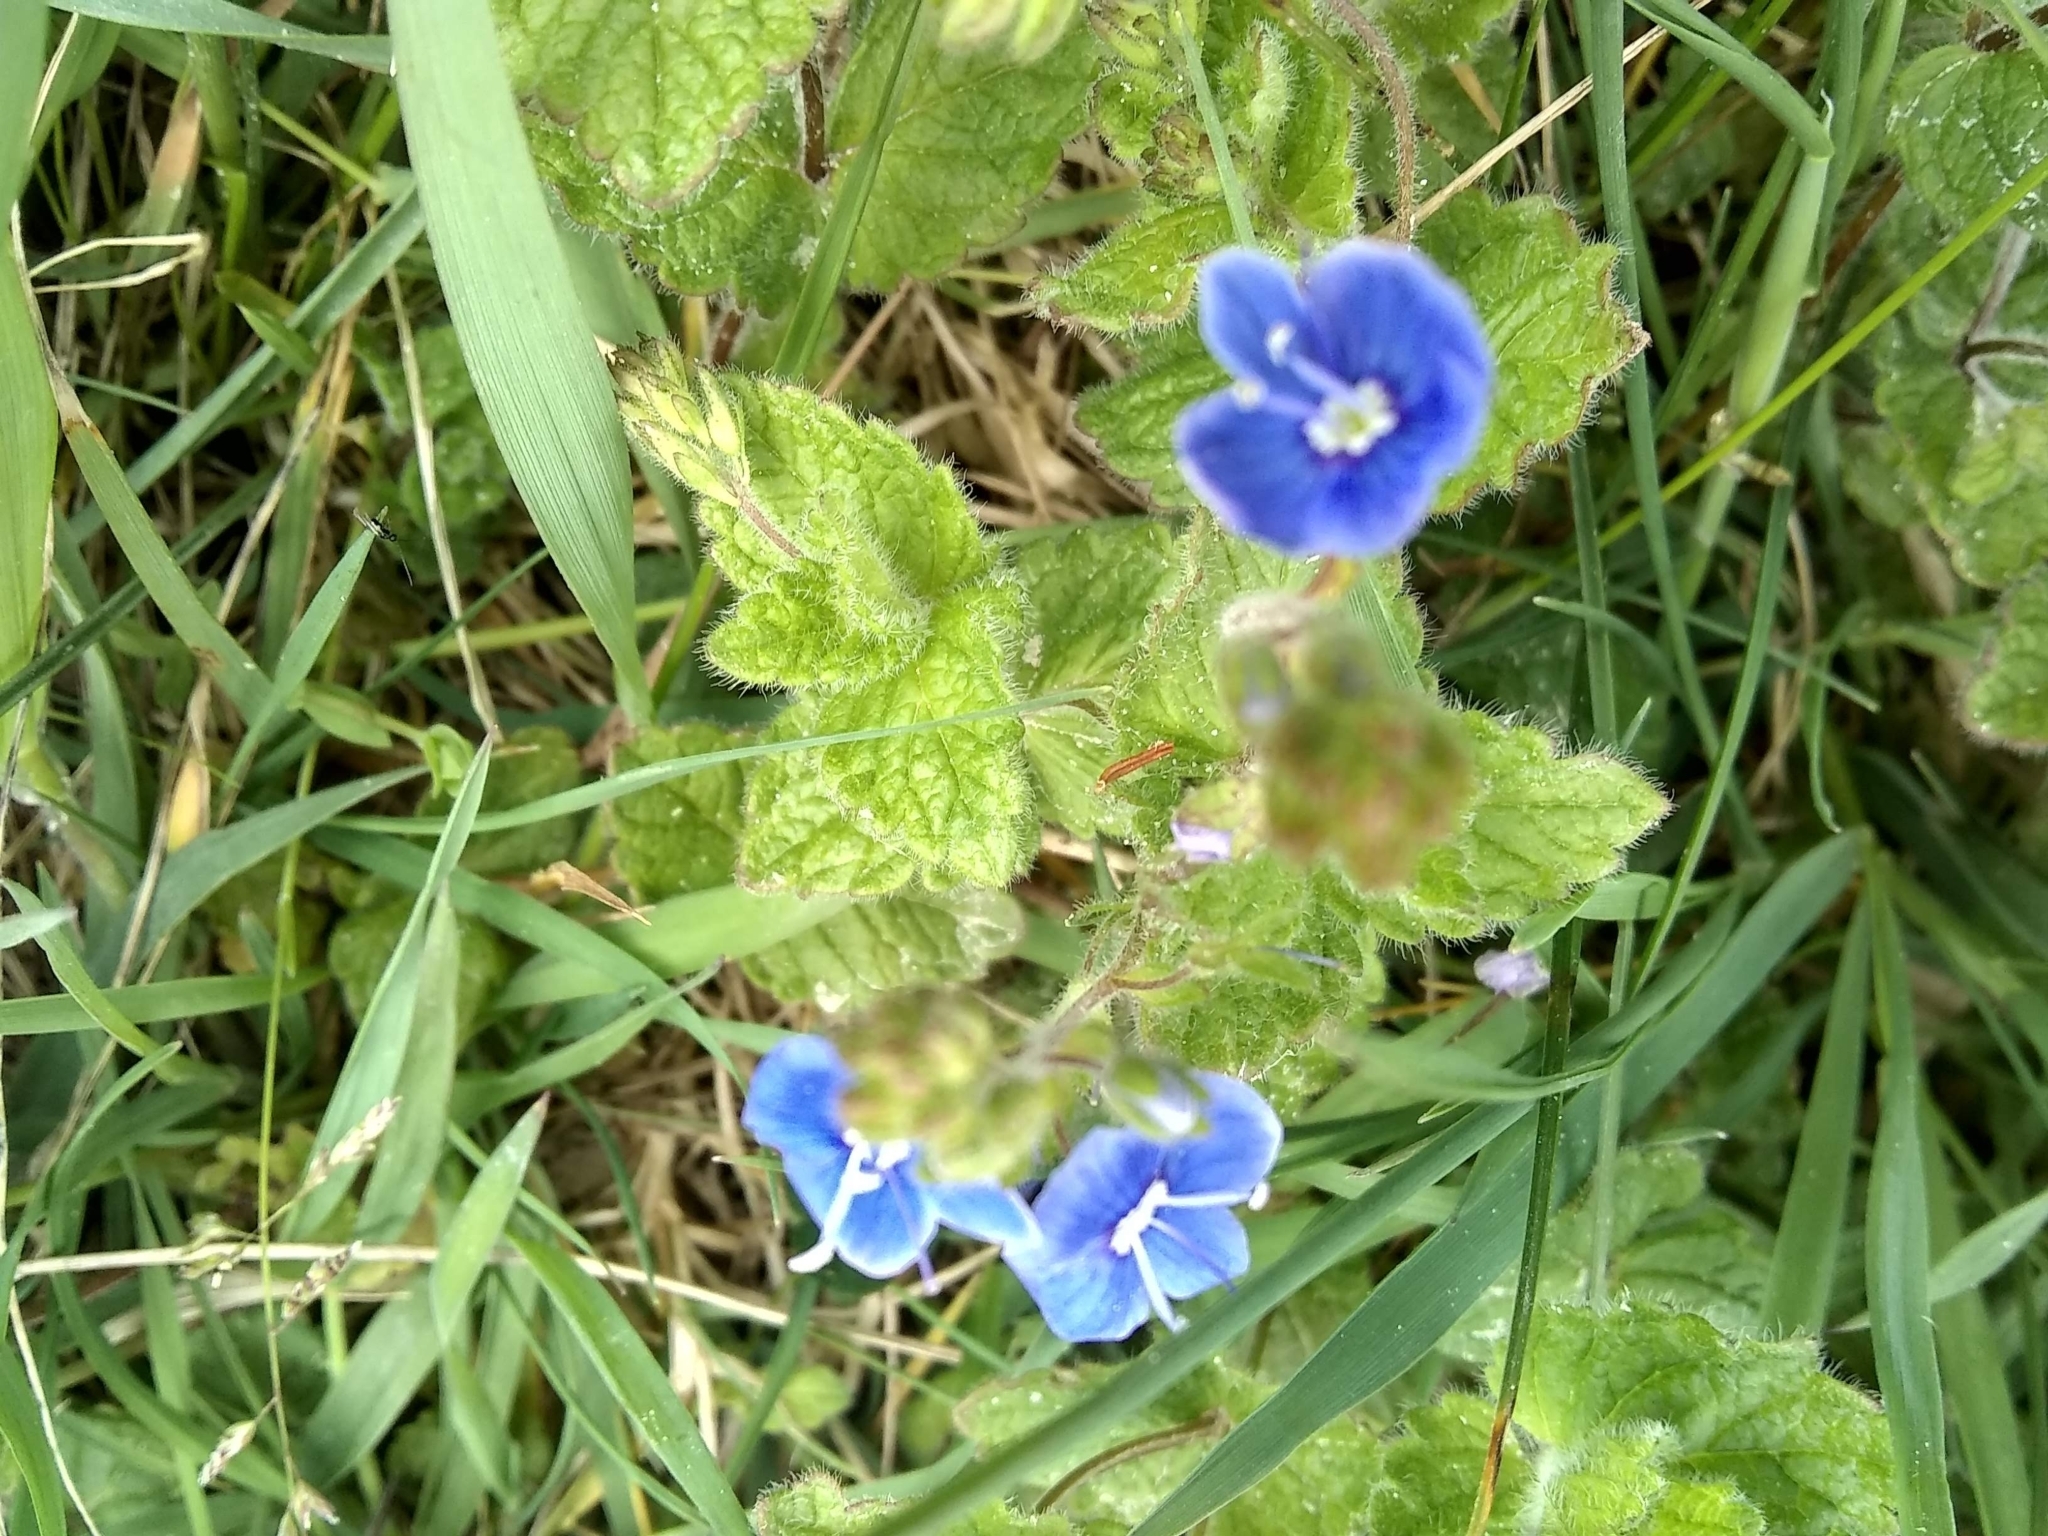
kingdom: Plantae
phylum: Tracheophyta
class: Magnoliopsida
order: Lamiales
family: Plantaginaceae
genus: Veronica
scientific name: Veronica chamaedrys
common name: Germander speedwell
